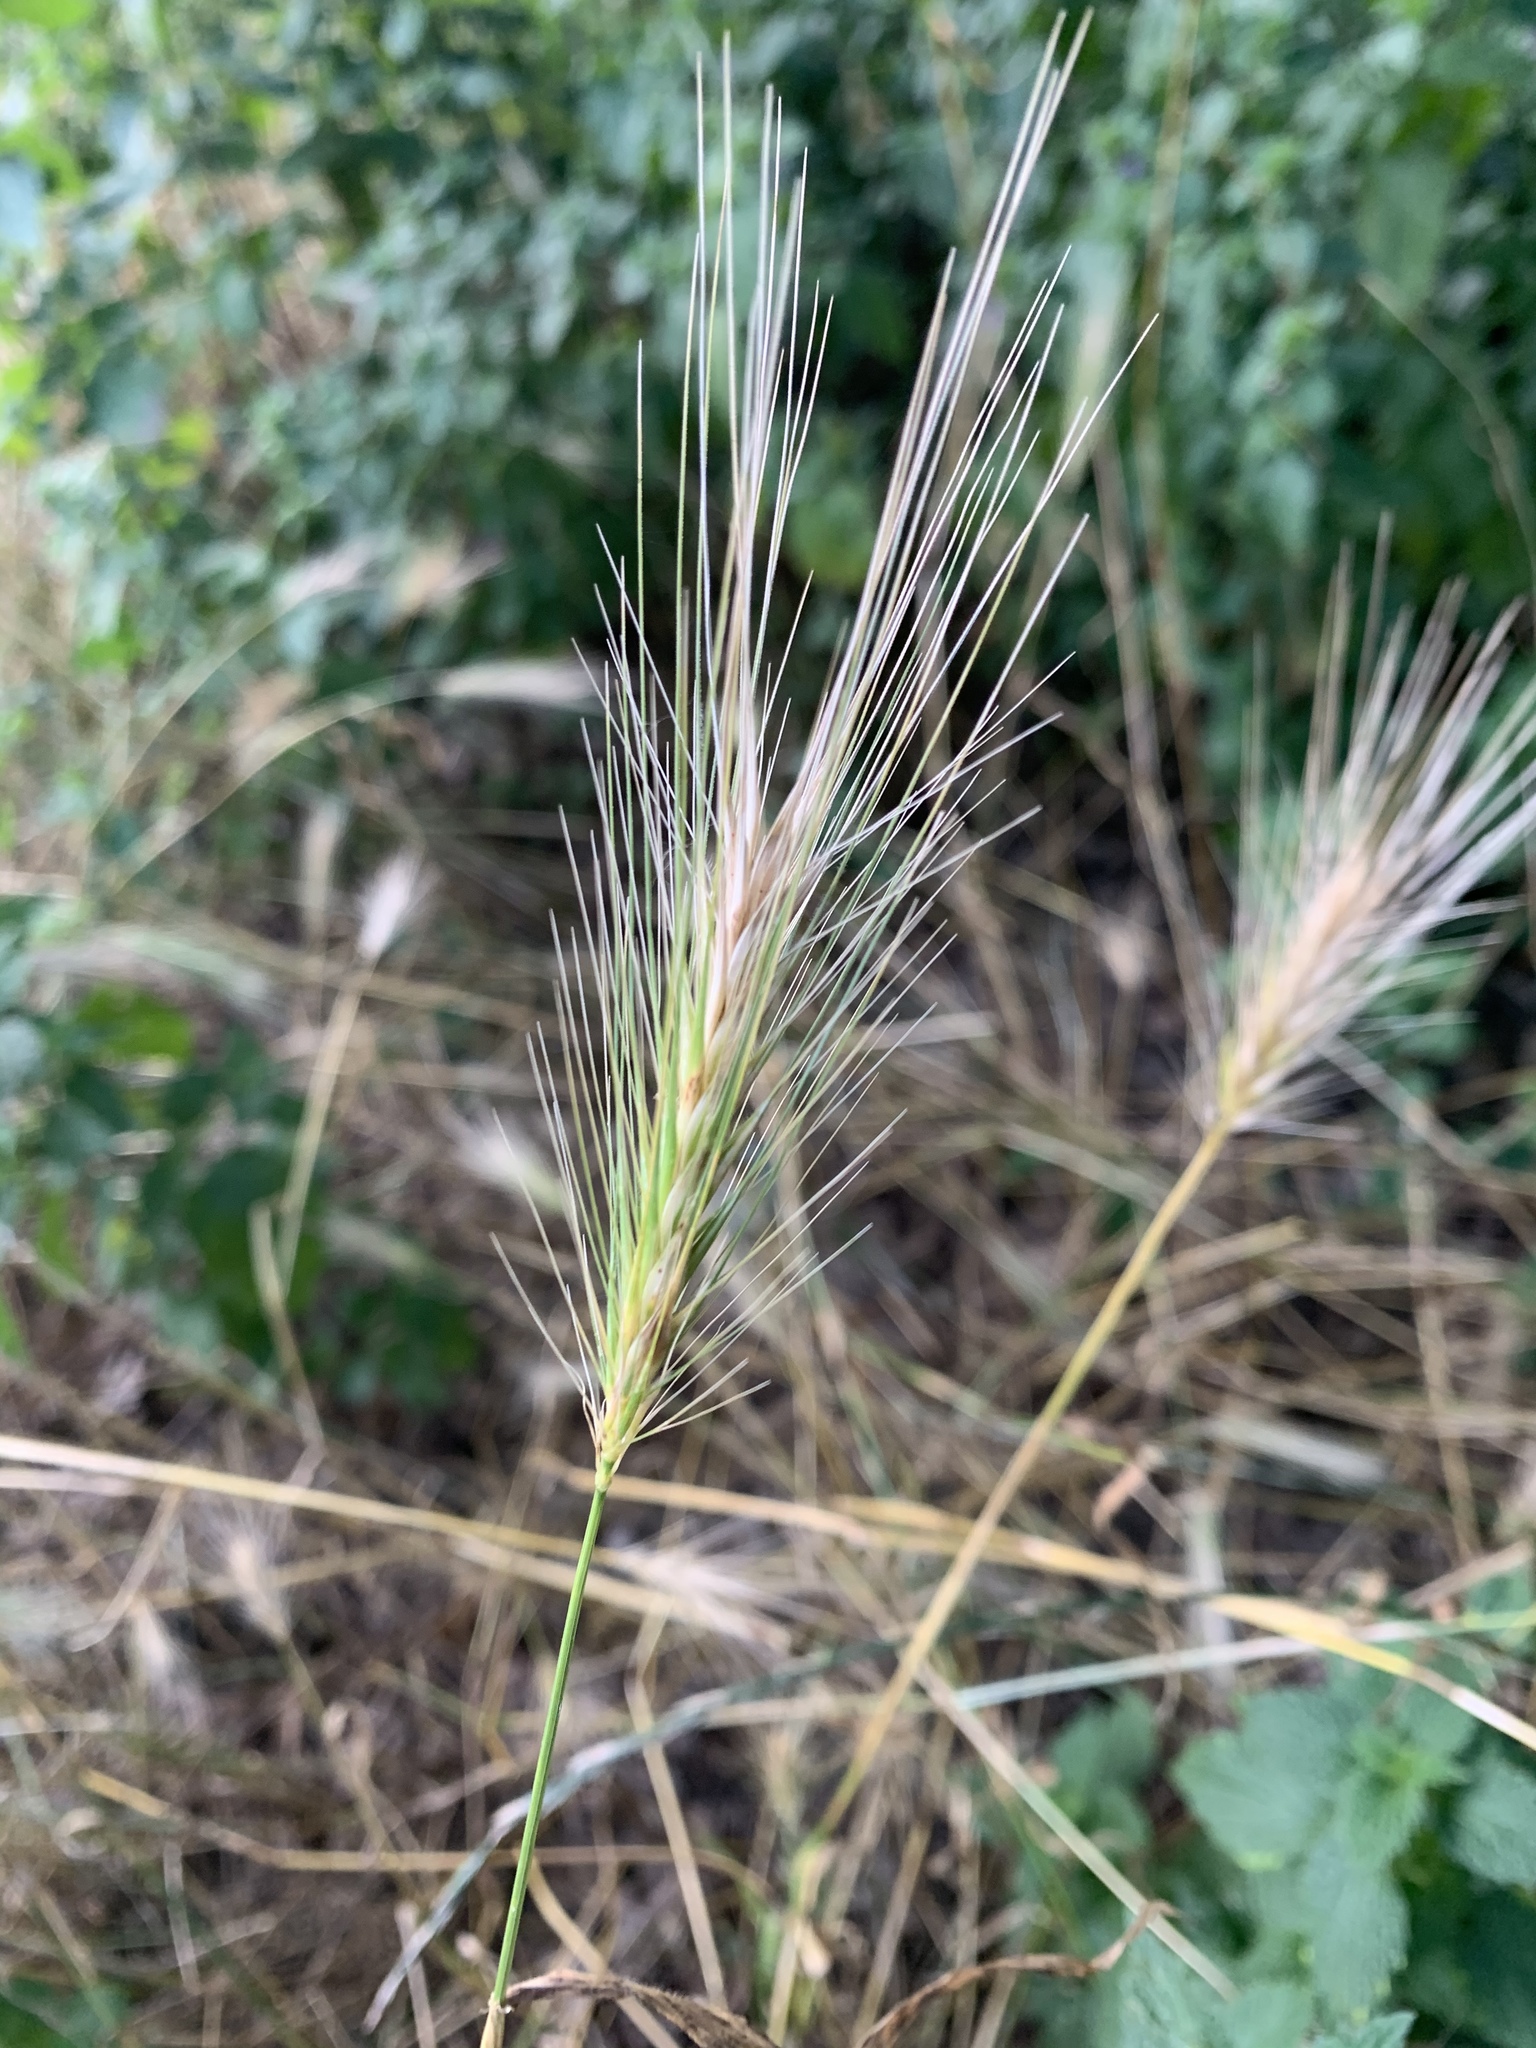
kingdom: Plantae
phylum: Tracheophyta
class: Liliopsida
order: Poales
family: Poaceae
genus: Hordeum
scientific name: Hordeum murinum
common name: Wall barley
